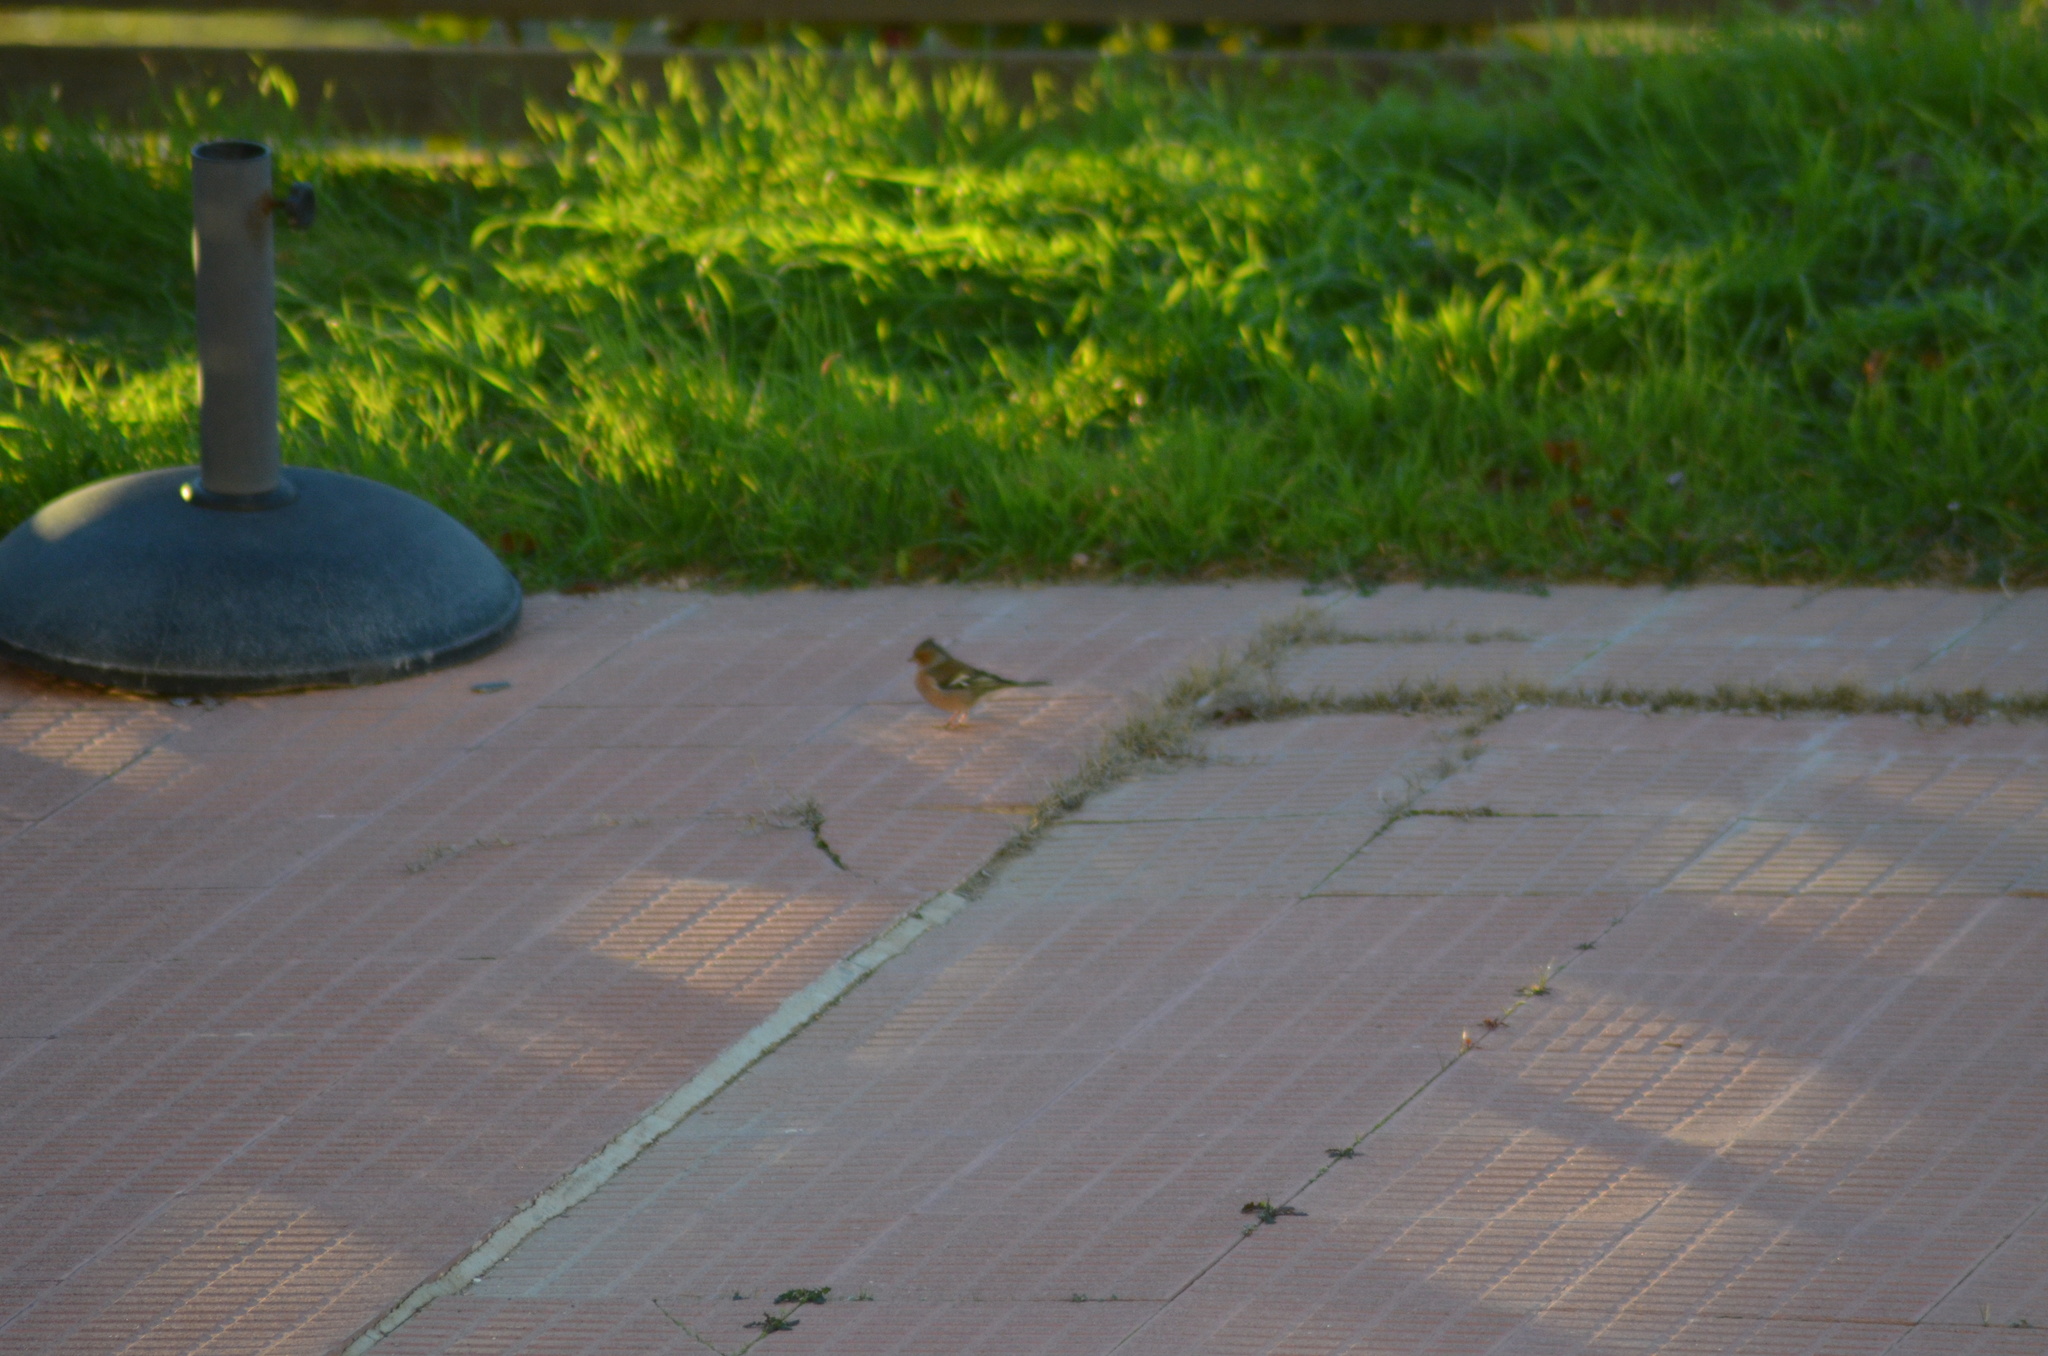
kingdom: Animalia
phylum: Chordata
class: Aves
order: Passeriformes
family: Fringillidae
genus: Fringilla
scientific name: Fringilla coelebs
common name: Common chaffinch
